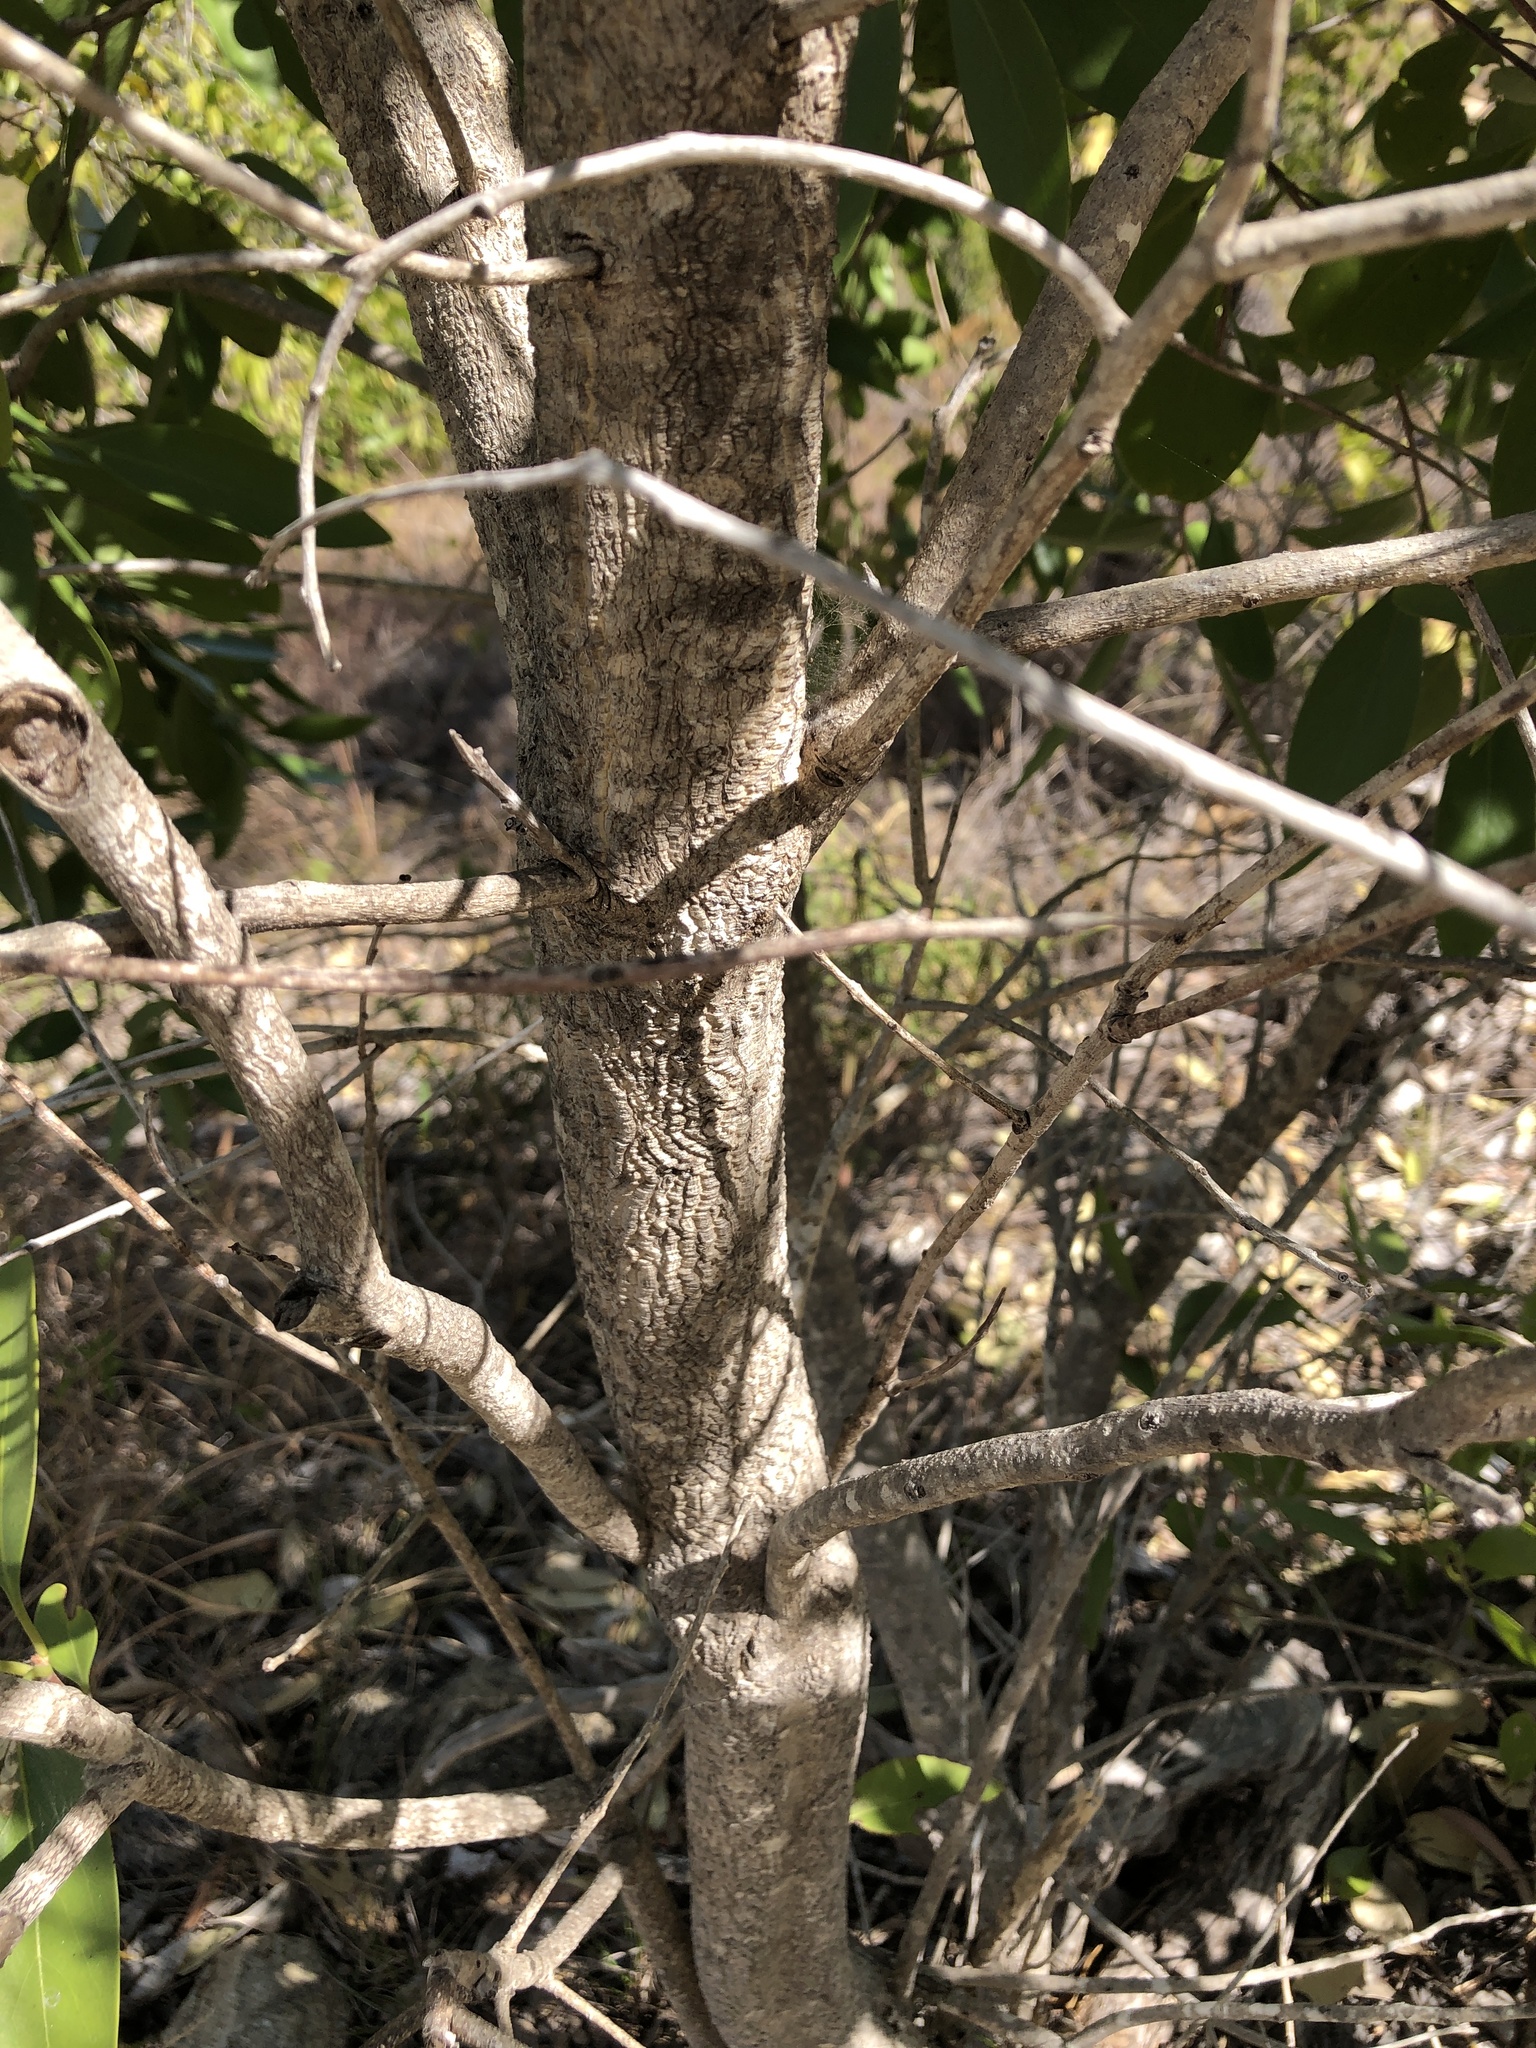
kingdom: Plantae
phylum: Tracheophyta
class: Magnoliopsida
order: Celastrales
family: Celastraceae
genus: Denhamia
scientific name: Denhamia disperma
